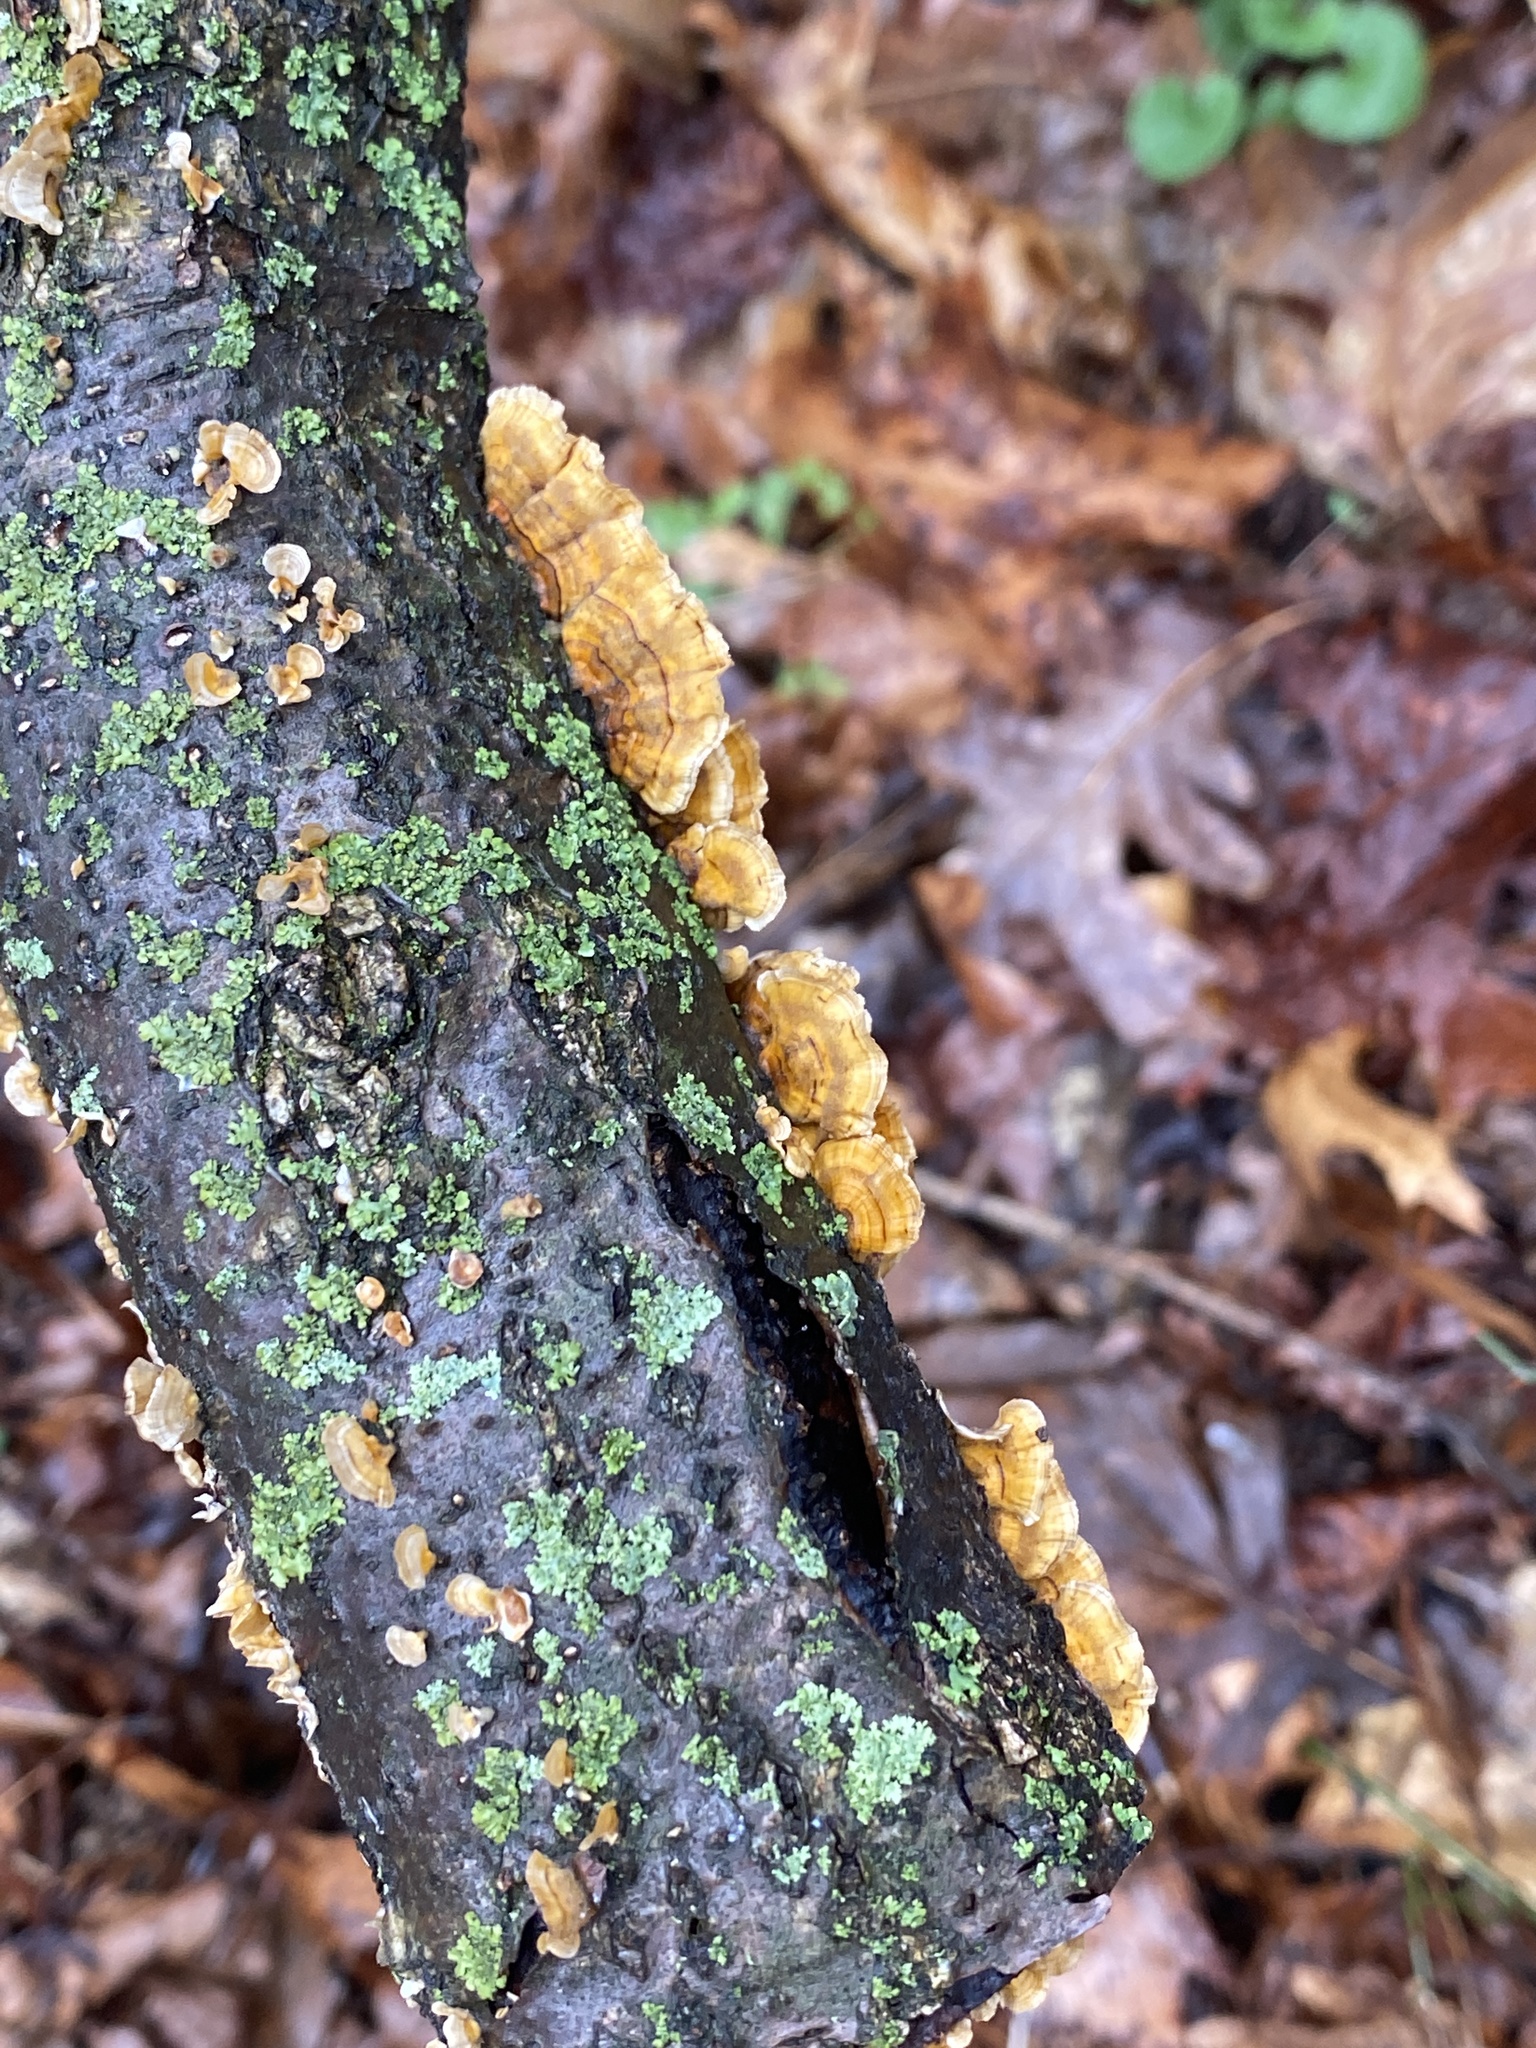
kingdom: Fungi
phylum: Basidiomycota
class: Agaricomycetes
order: Russulales
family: Stereaceae
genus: Stereum
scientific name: Stereum complicatum
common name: Crowded parchment
